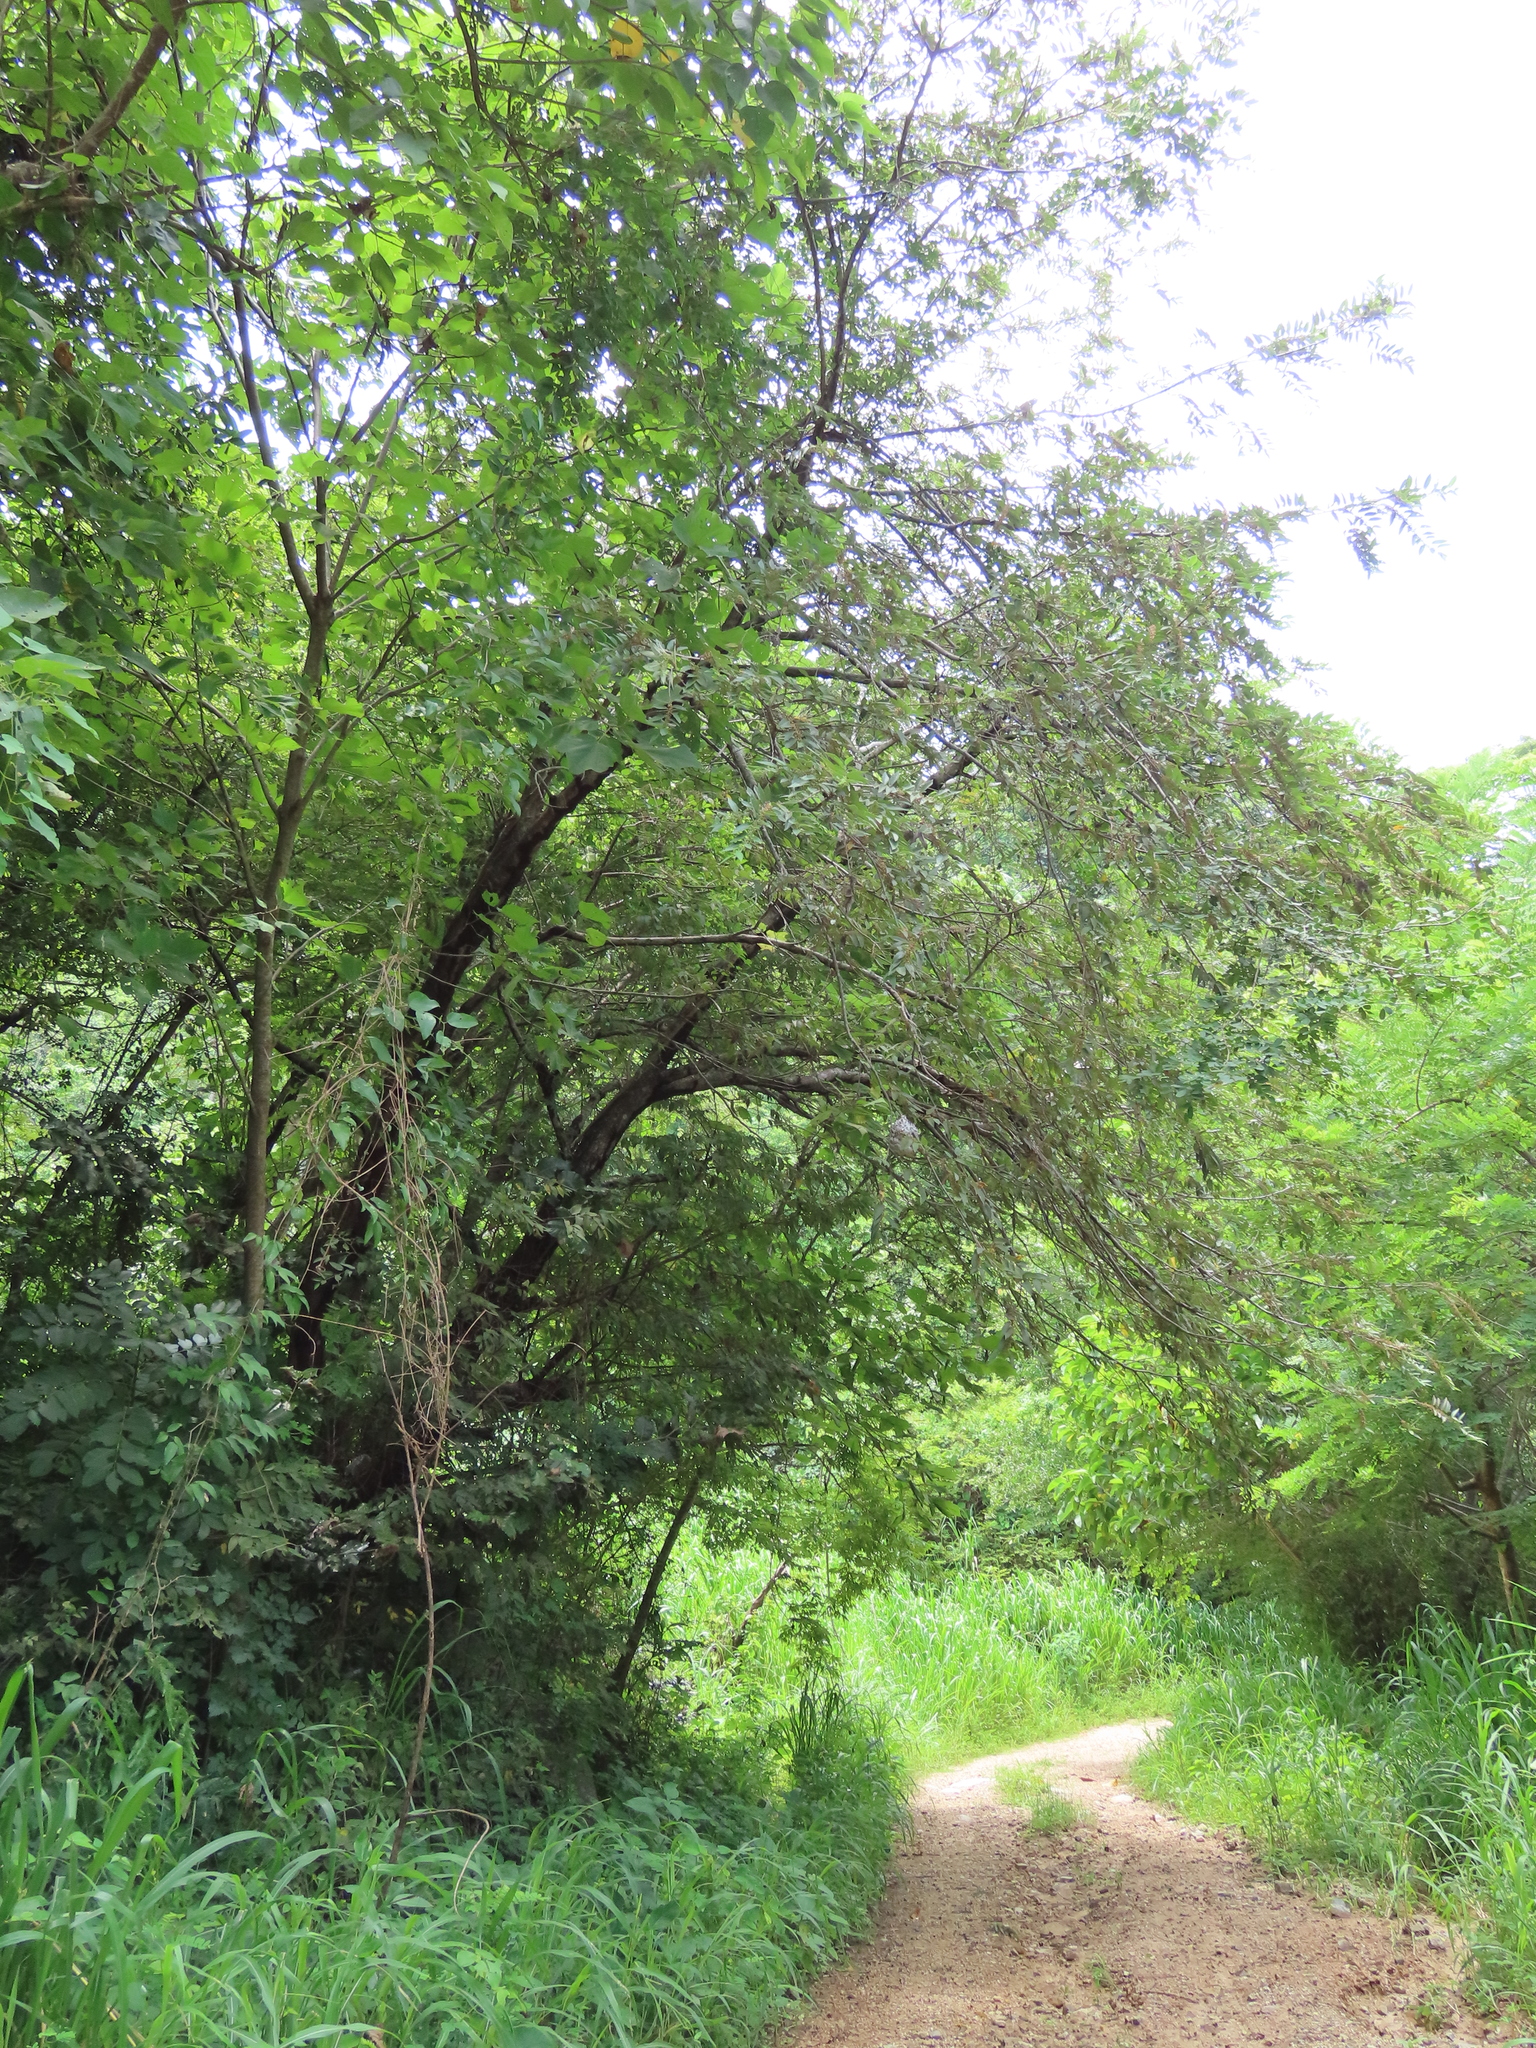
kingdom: Plantae
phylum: Tracheophyta
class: Magnoliopsida
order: Rosales
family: Cannabaceae
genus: Trema
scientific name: Trema micranthum
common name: Jamaican nettletree
